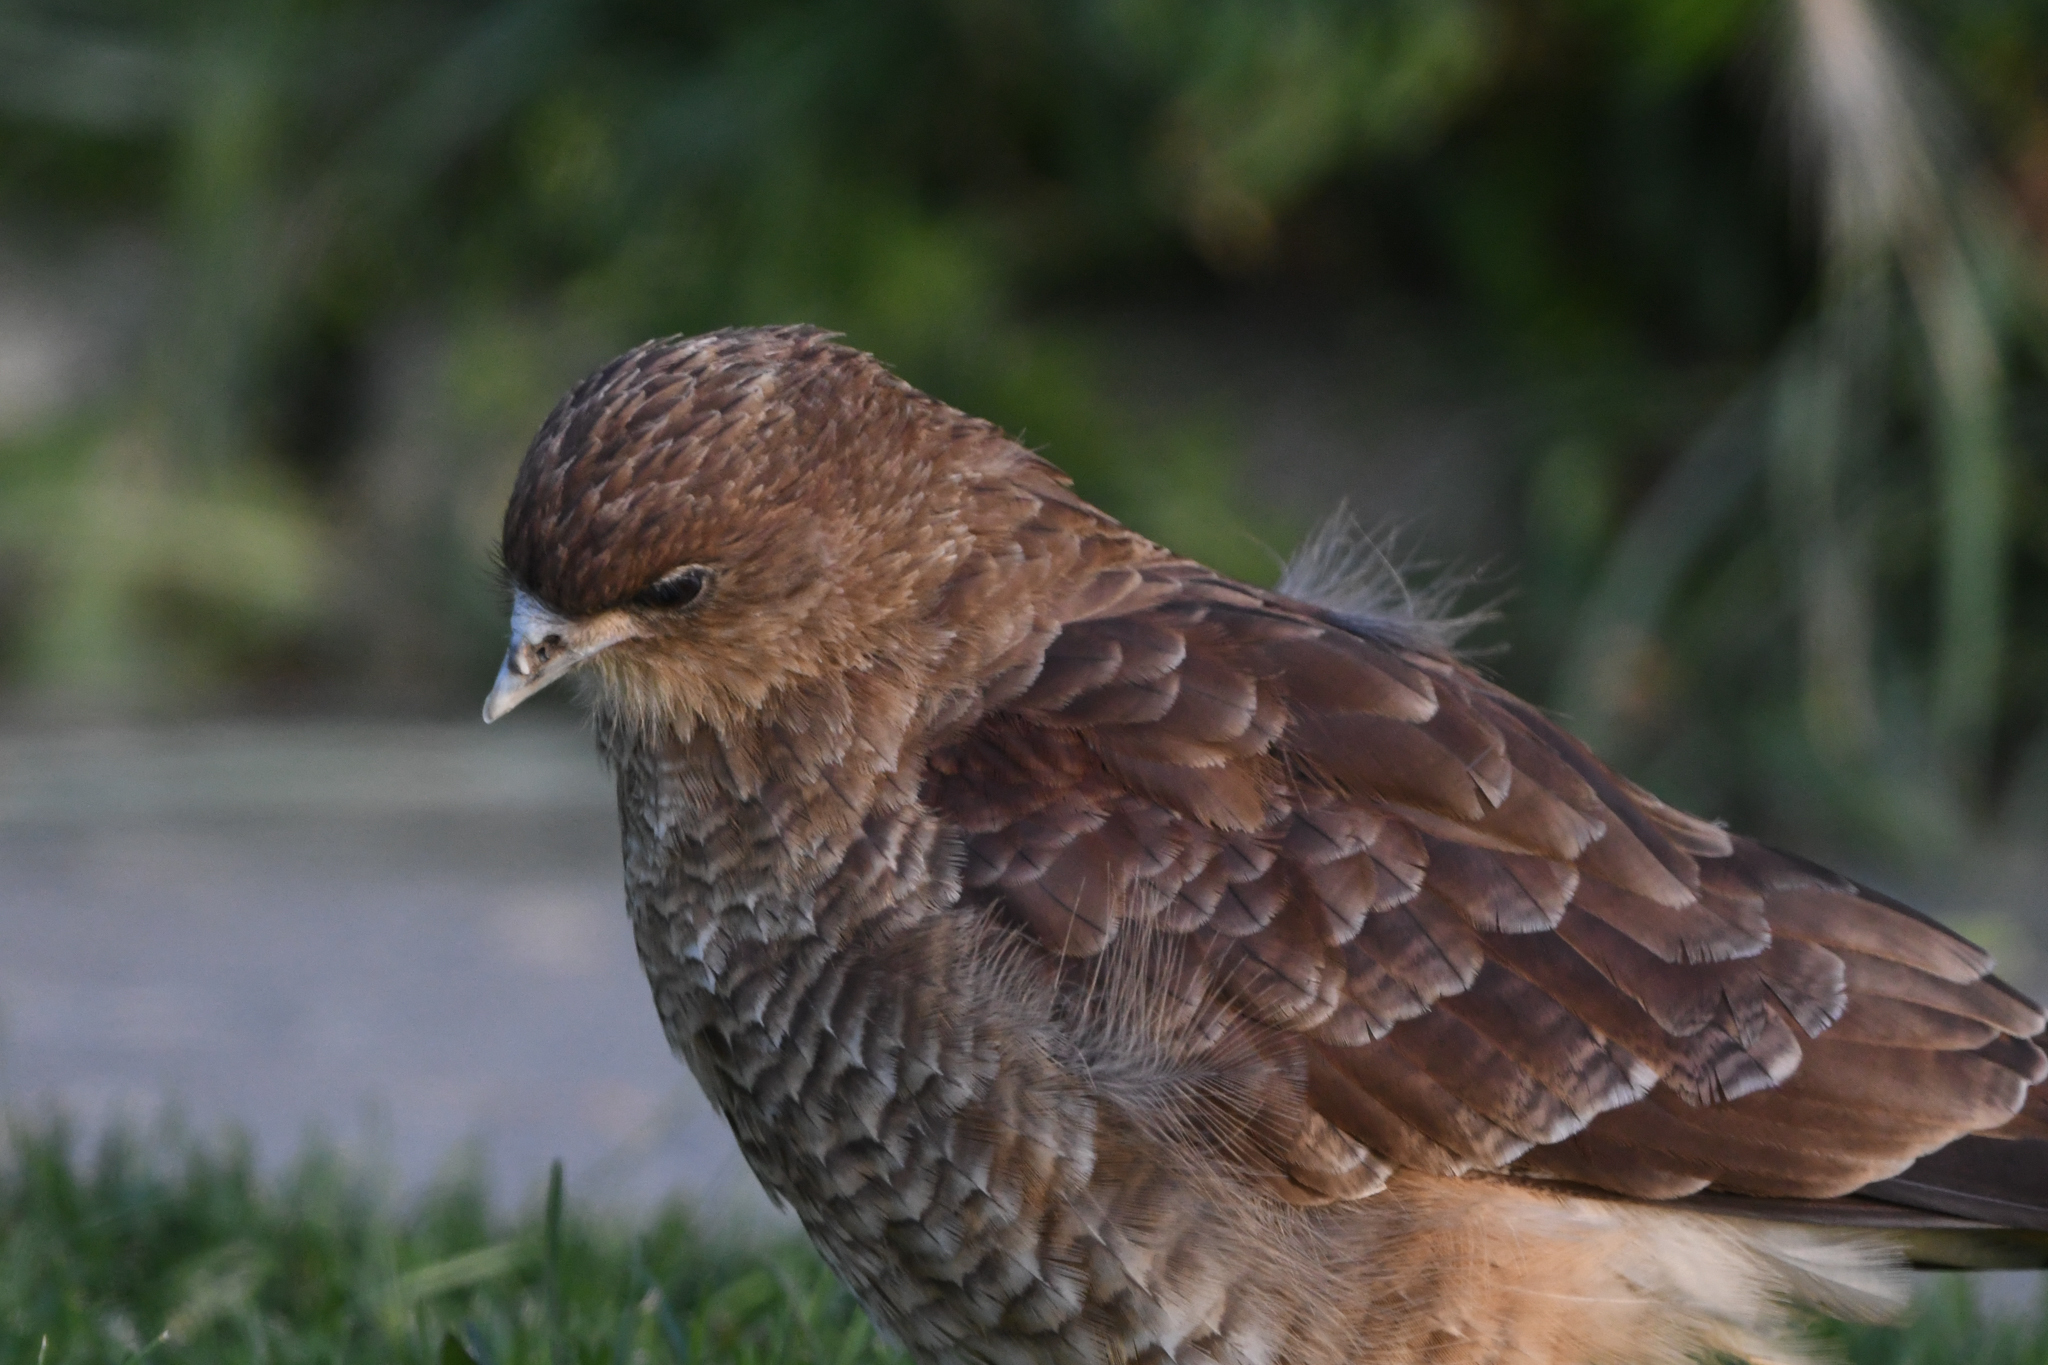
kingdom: Animalia
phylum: Chordata
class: Aves
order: Falconiformes
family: Falconidae
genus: Daptrius
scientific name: Daptrius
